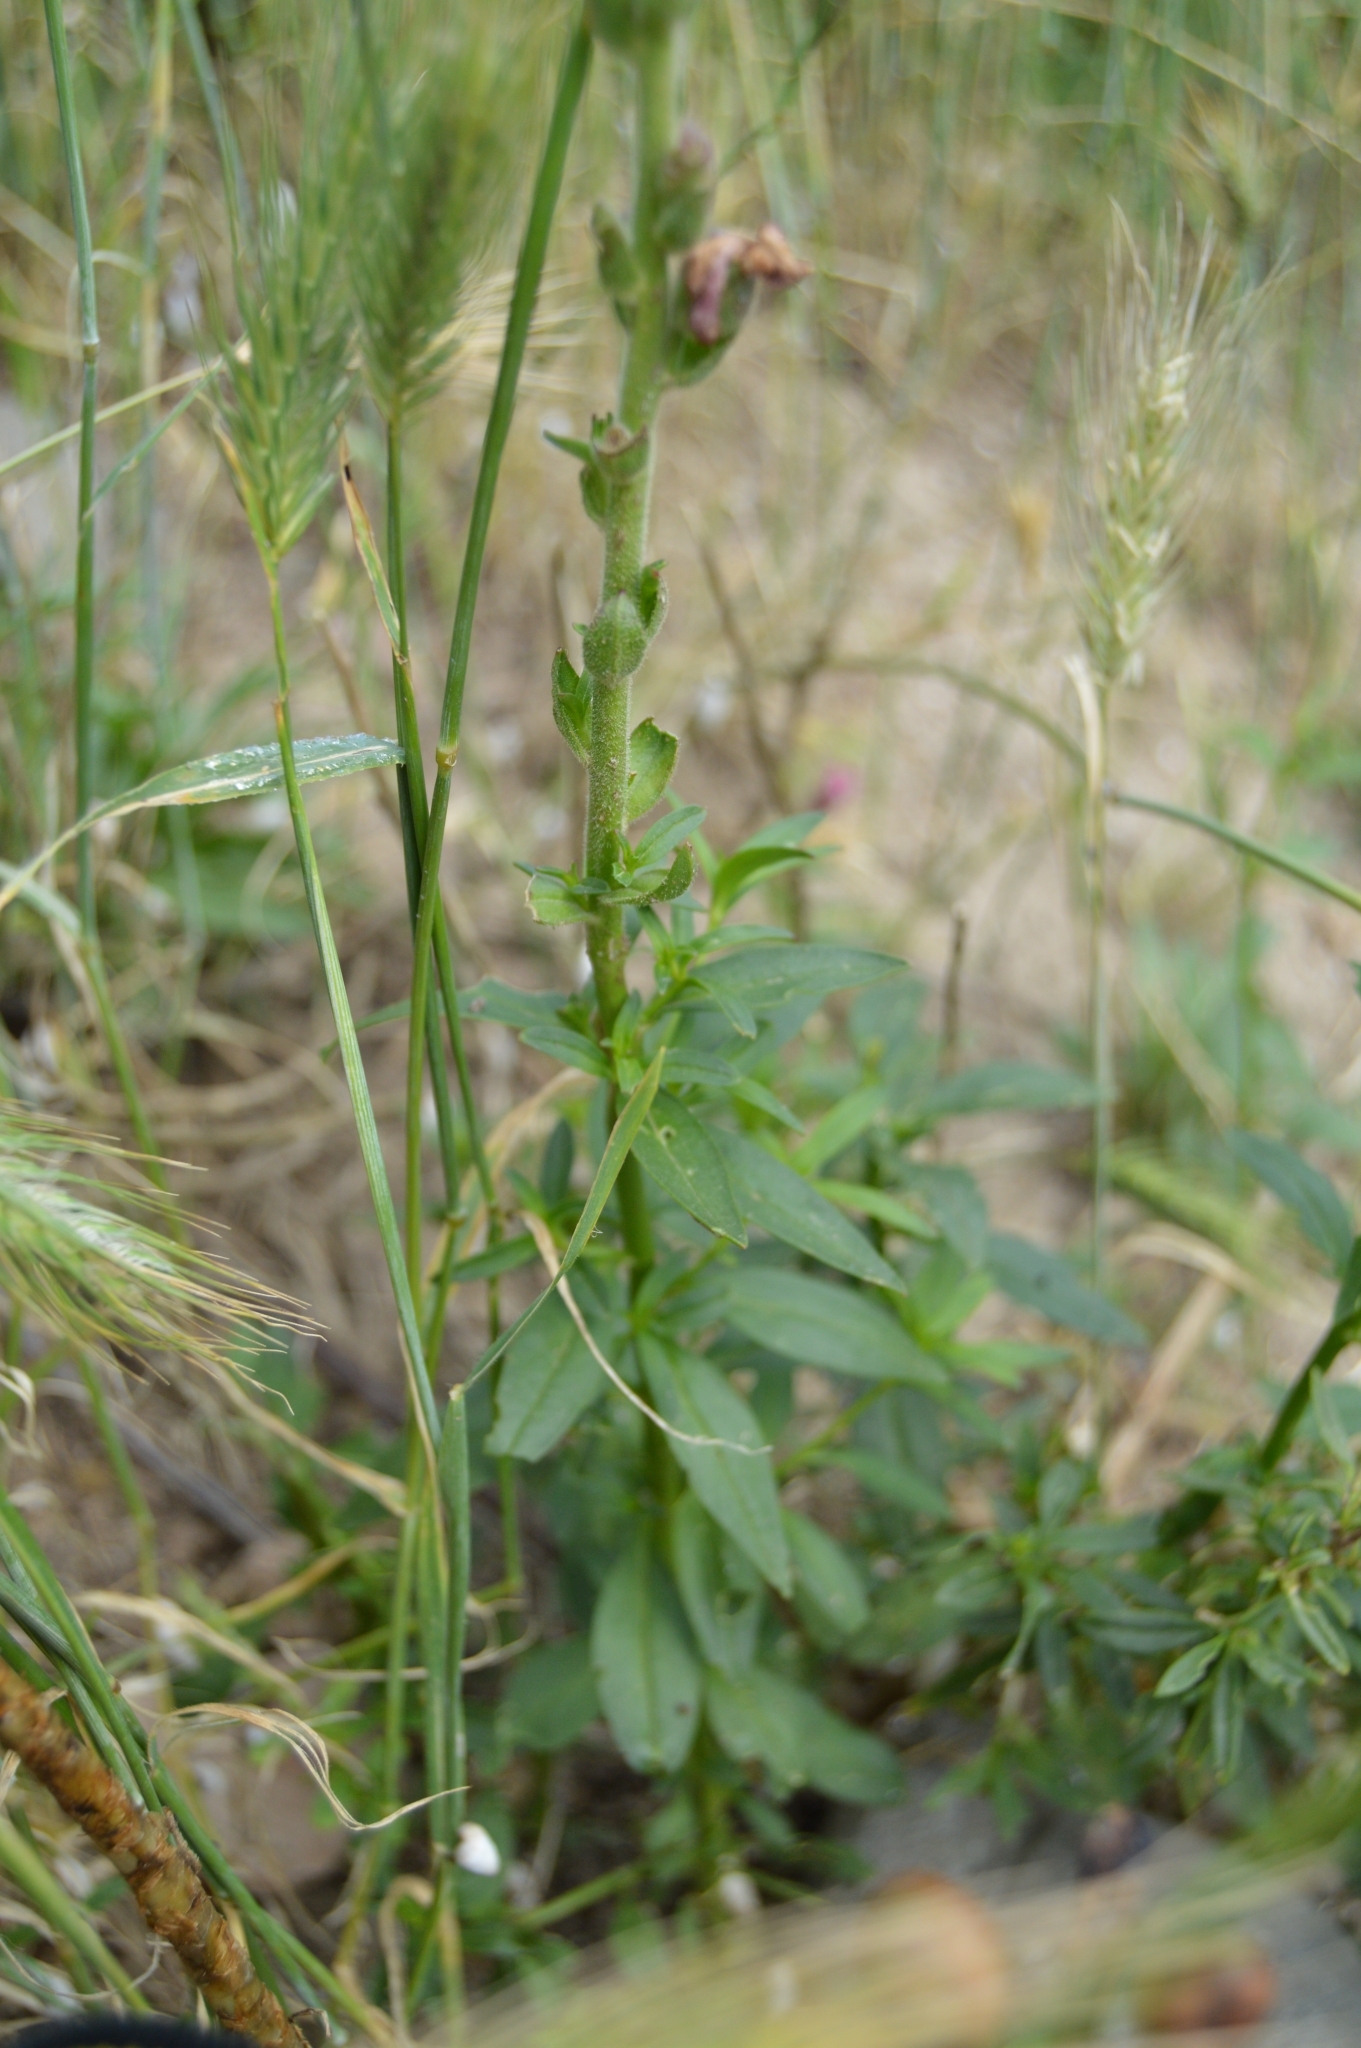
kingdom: Plantae
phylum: Tracheophyta
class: Magnoliopsida
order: Lamiales
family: Plantaginaceae
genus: Antirrhinum
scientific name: Antirrhinum majus
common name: Snapdragon
